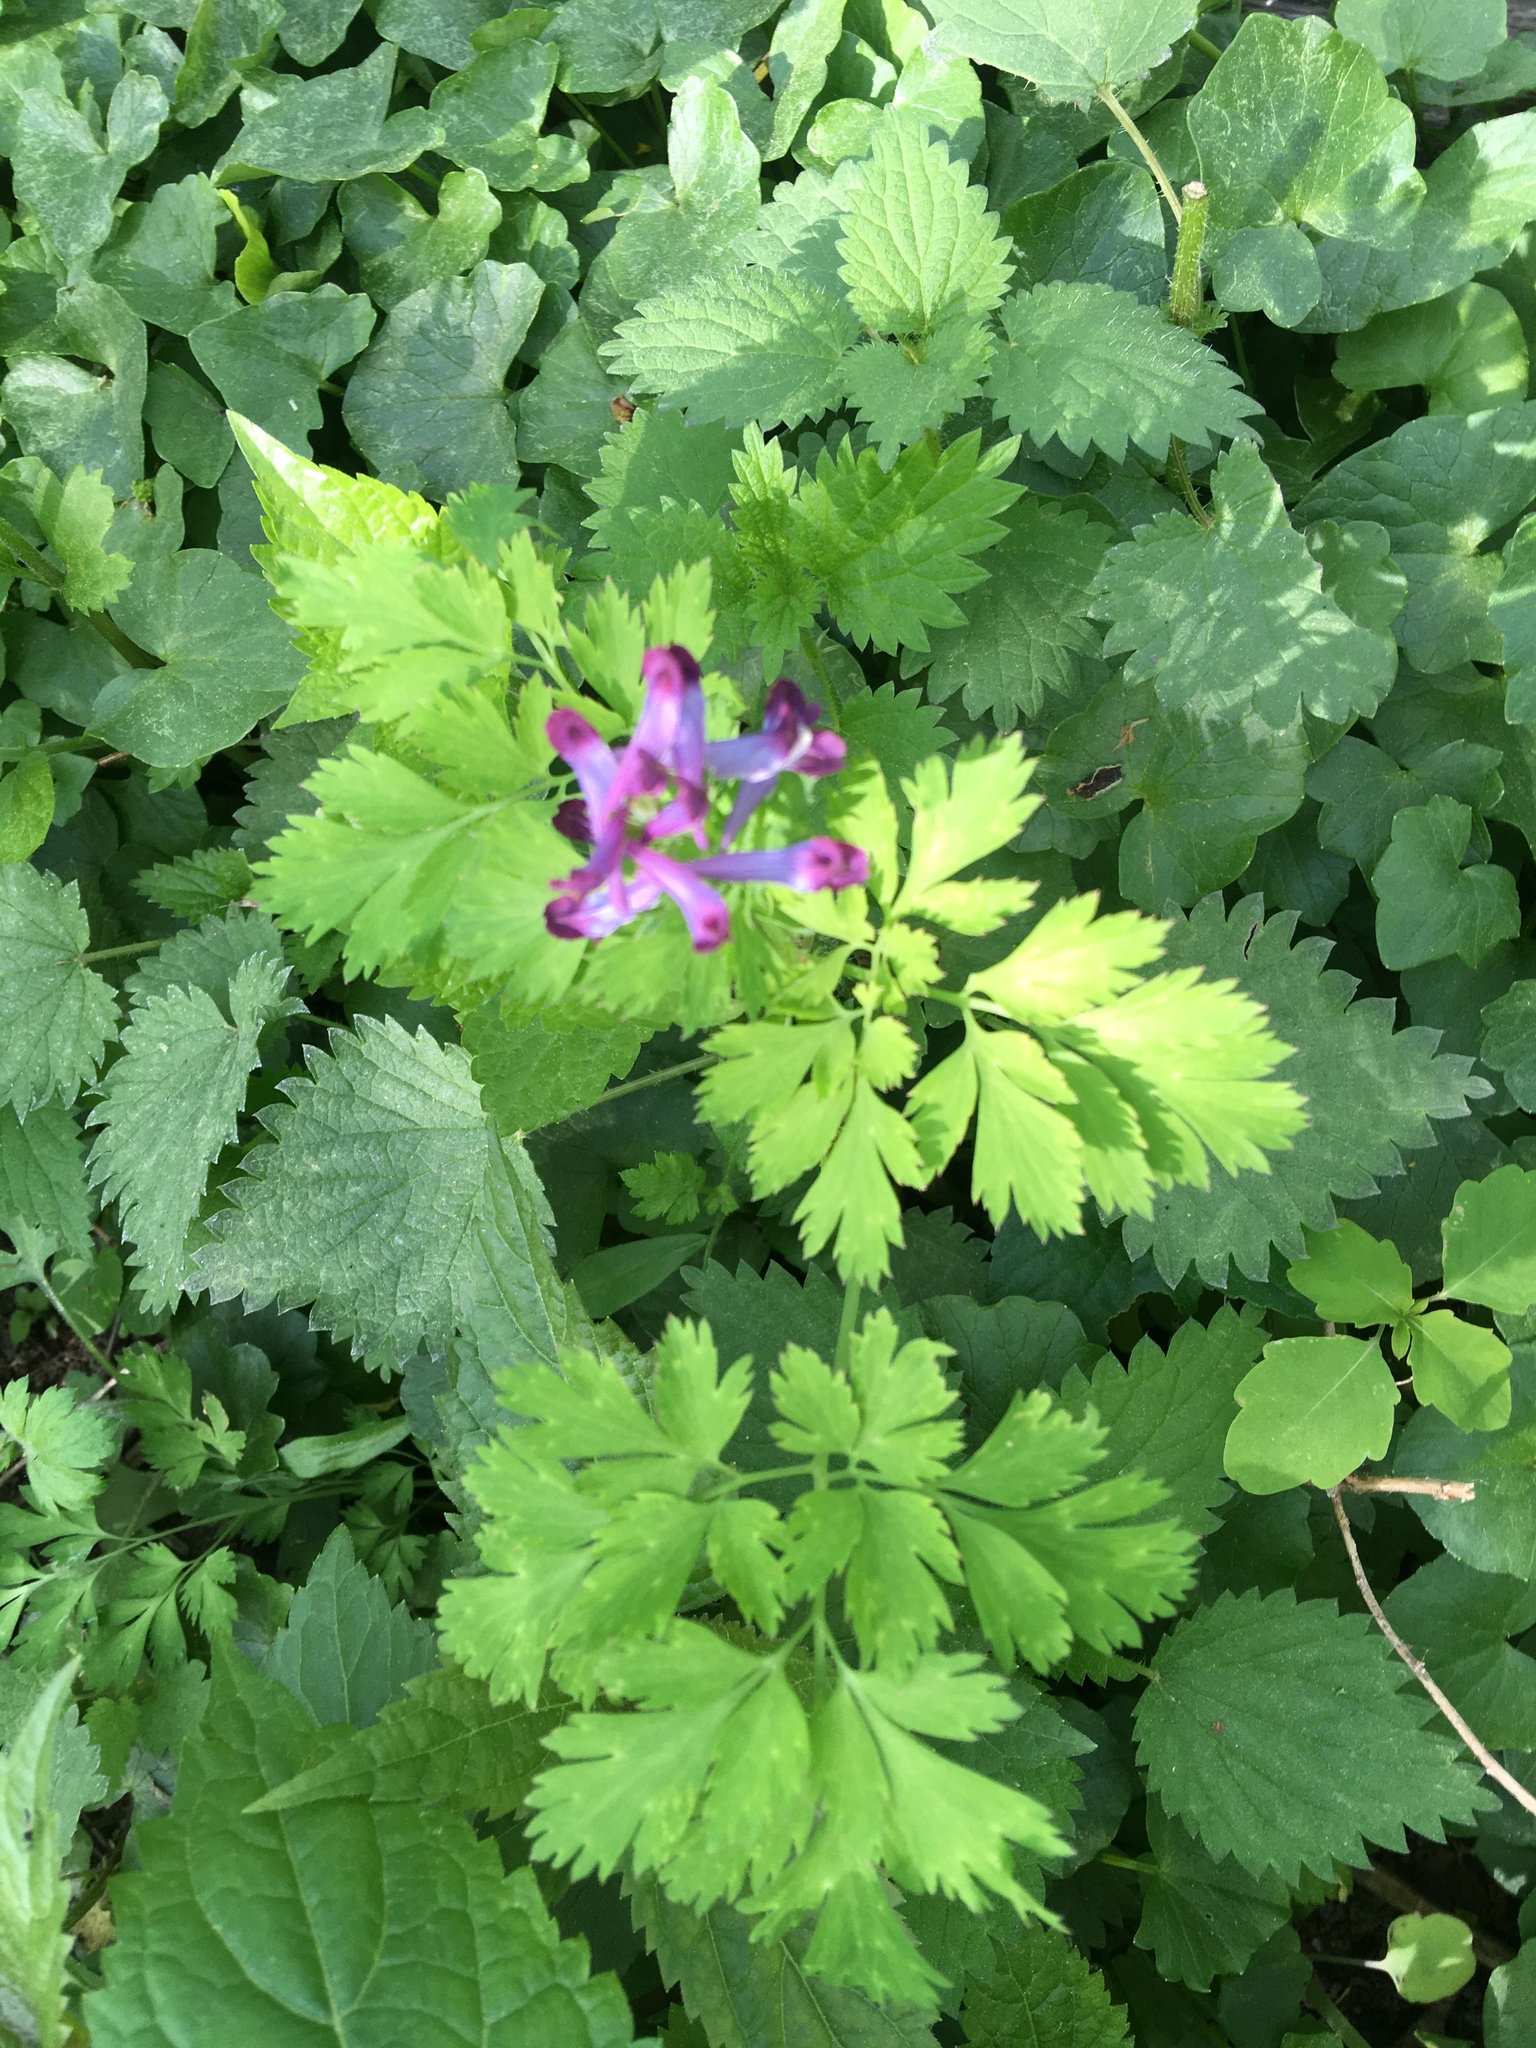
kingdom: Plantae
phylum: Tracheophyta
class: Magnoliopsida
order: Ranunculales
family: Papaveraceae
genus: Corydalis
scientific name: Corydalis incisa
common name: Incised fumewort
